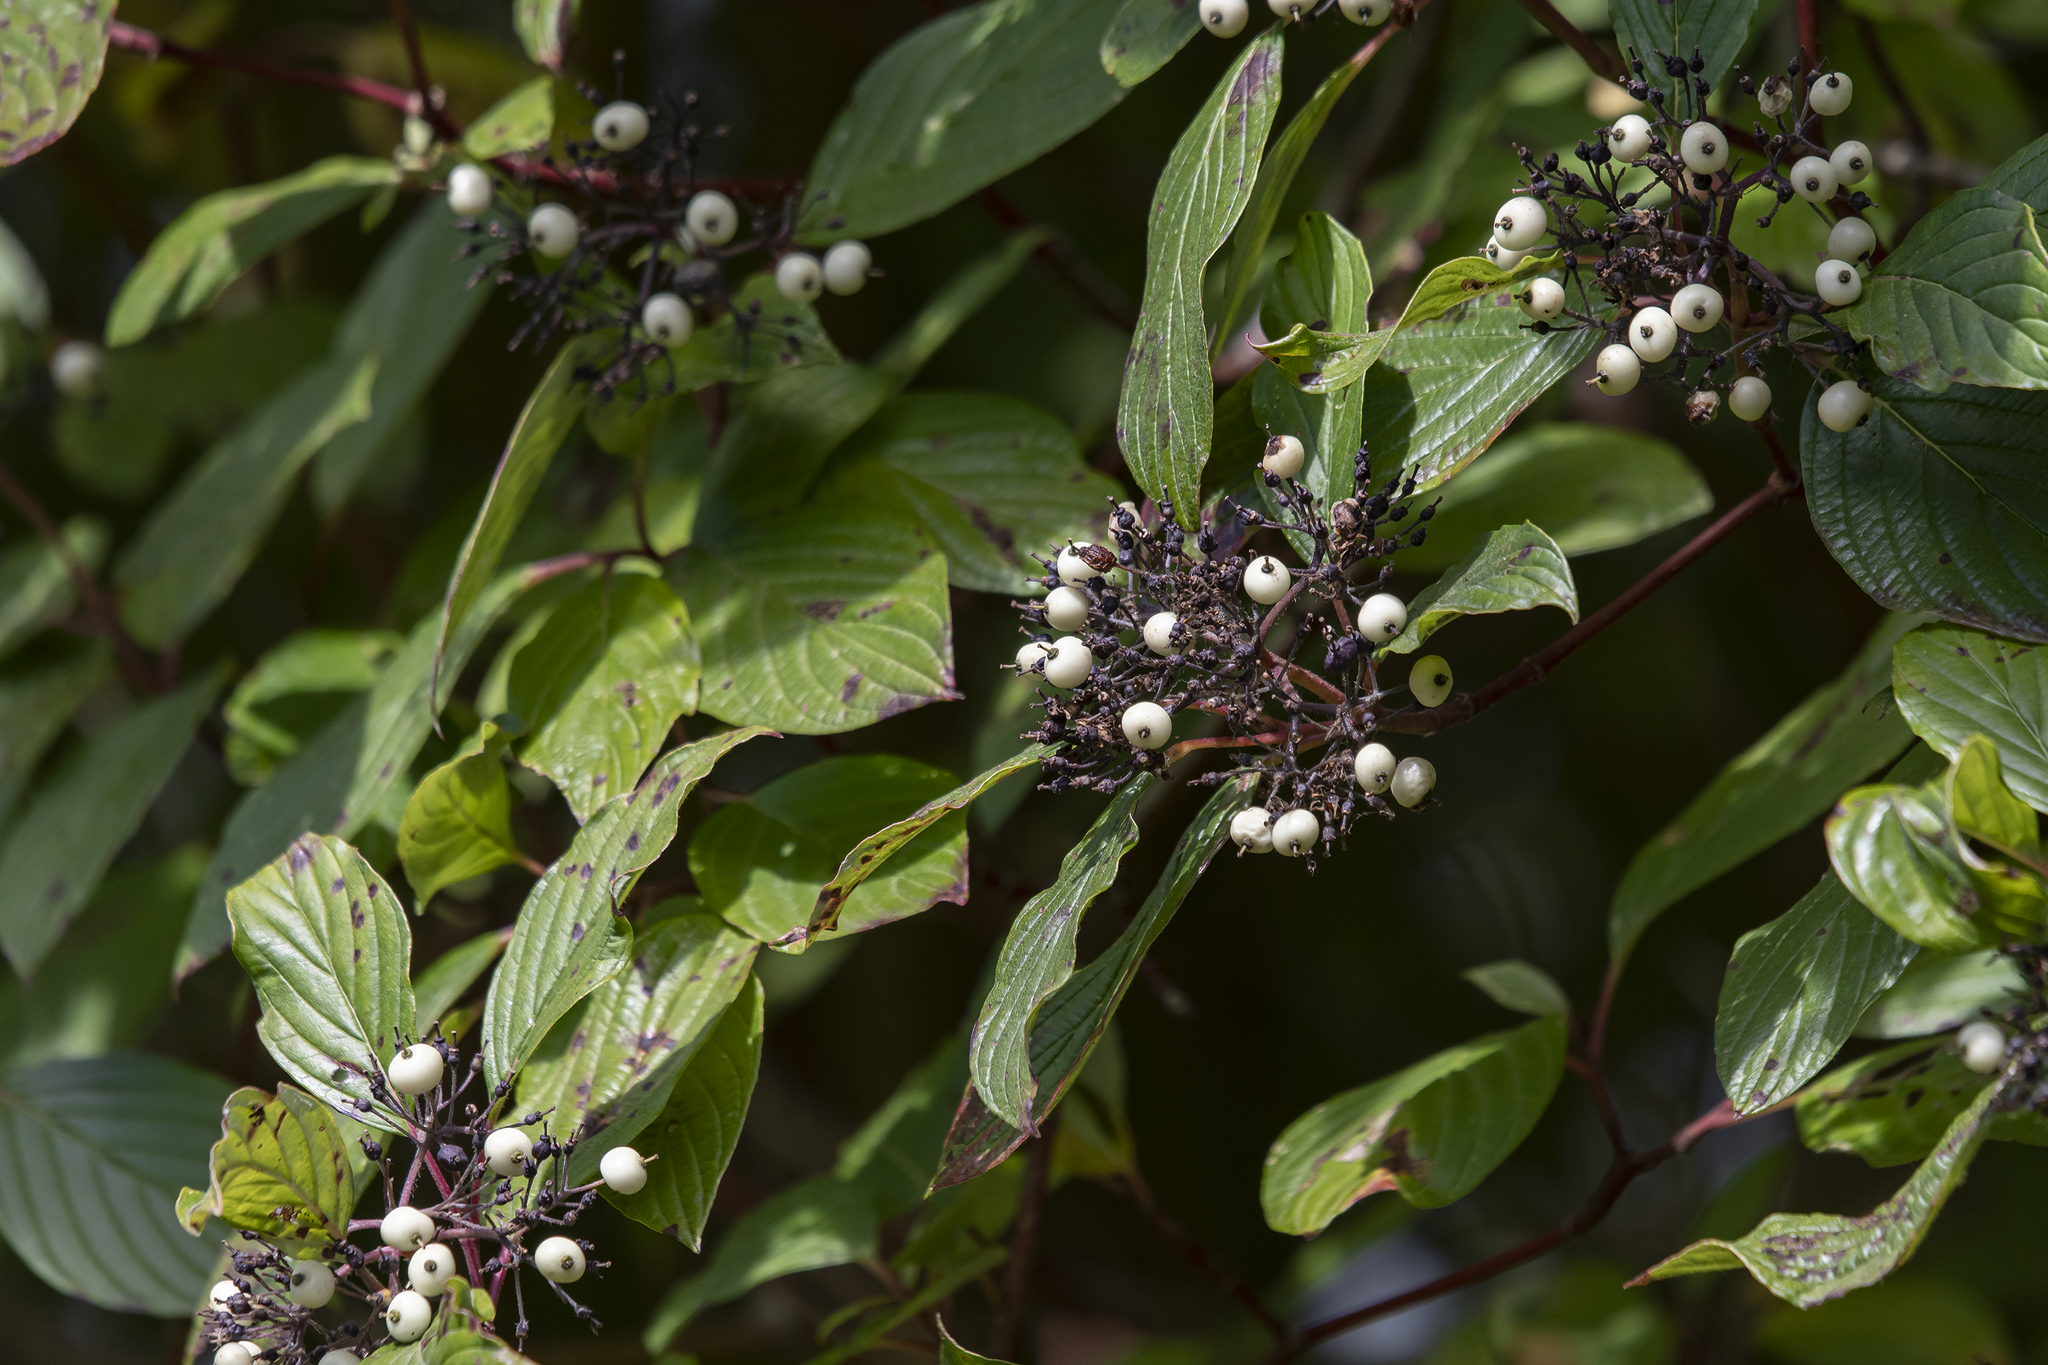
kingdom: Plantae
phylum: Tracheophyta
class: Magnoliopsida
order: Cornales
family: Cornaceae
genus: Cornus
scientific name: Cornus sericea
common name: Red-osier dogwood
